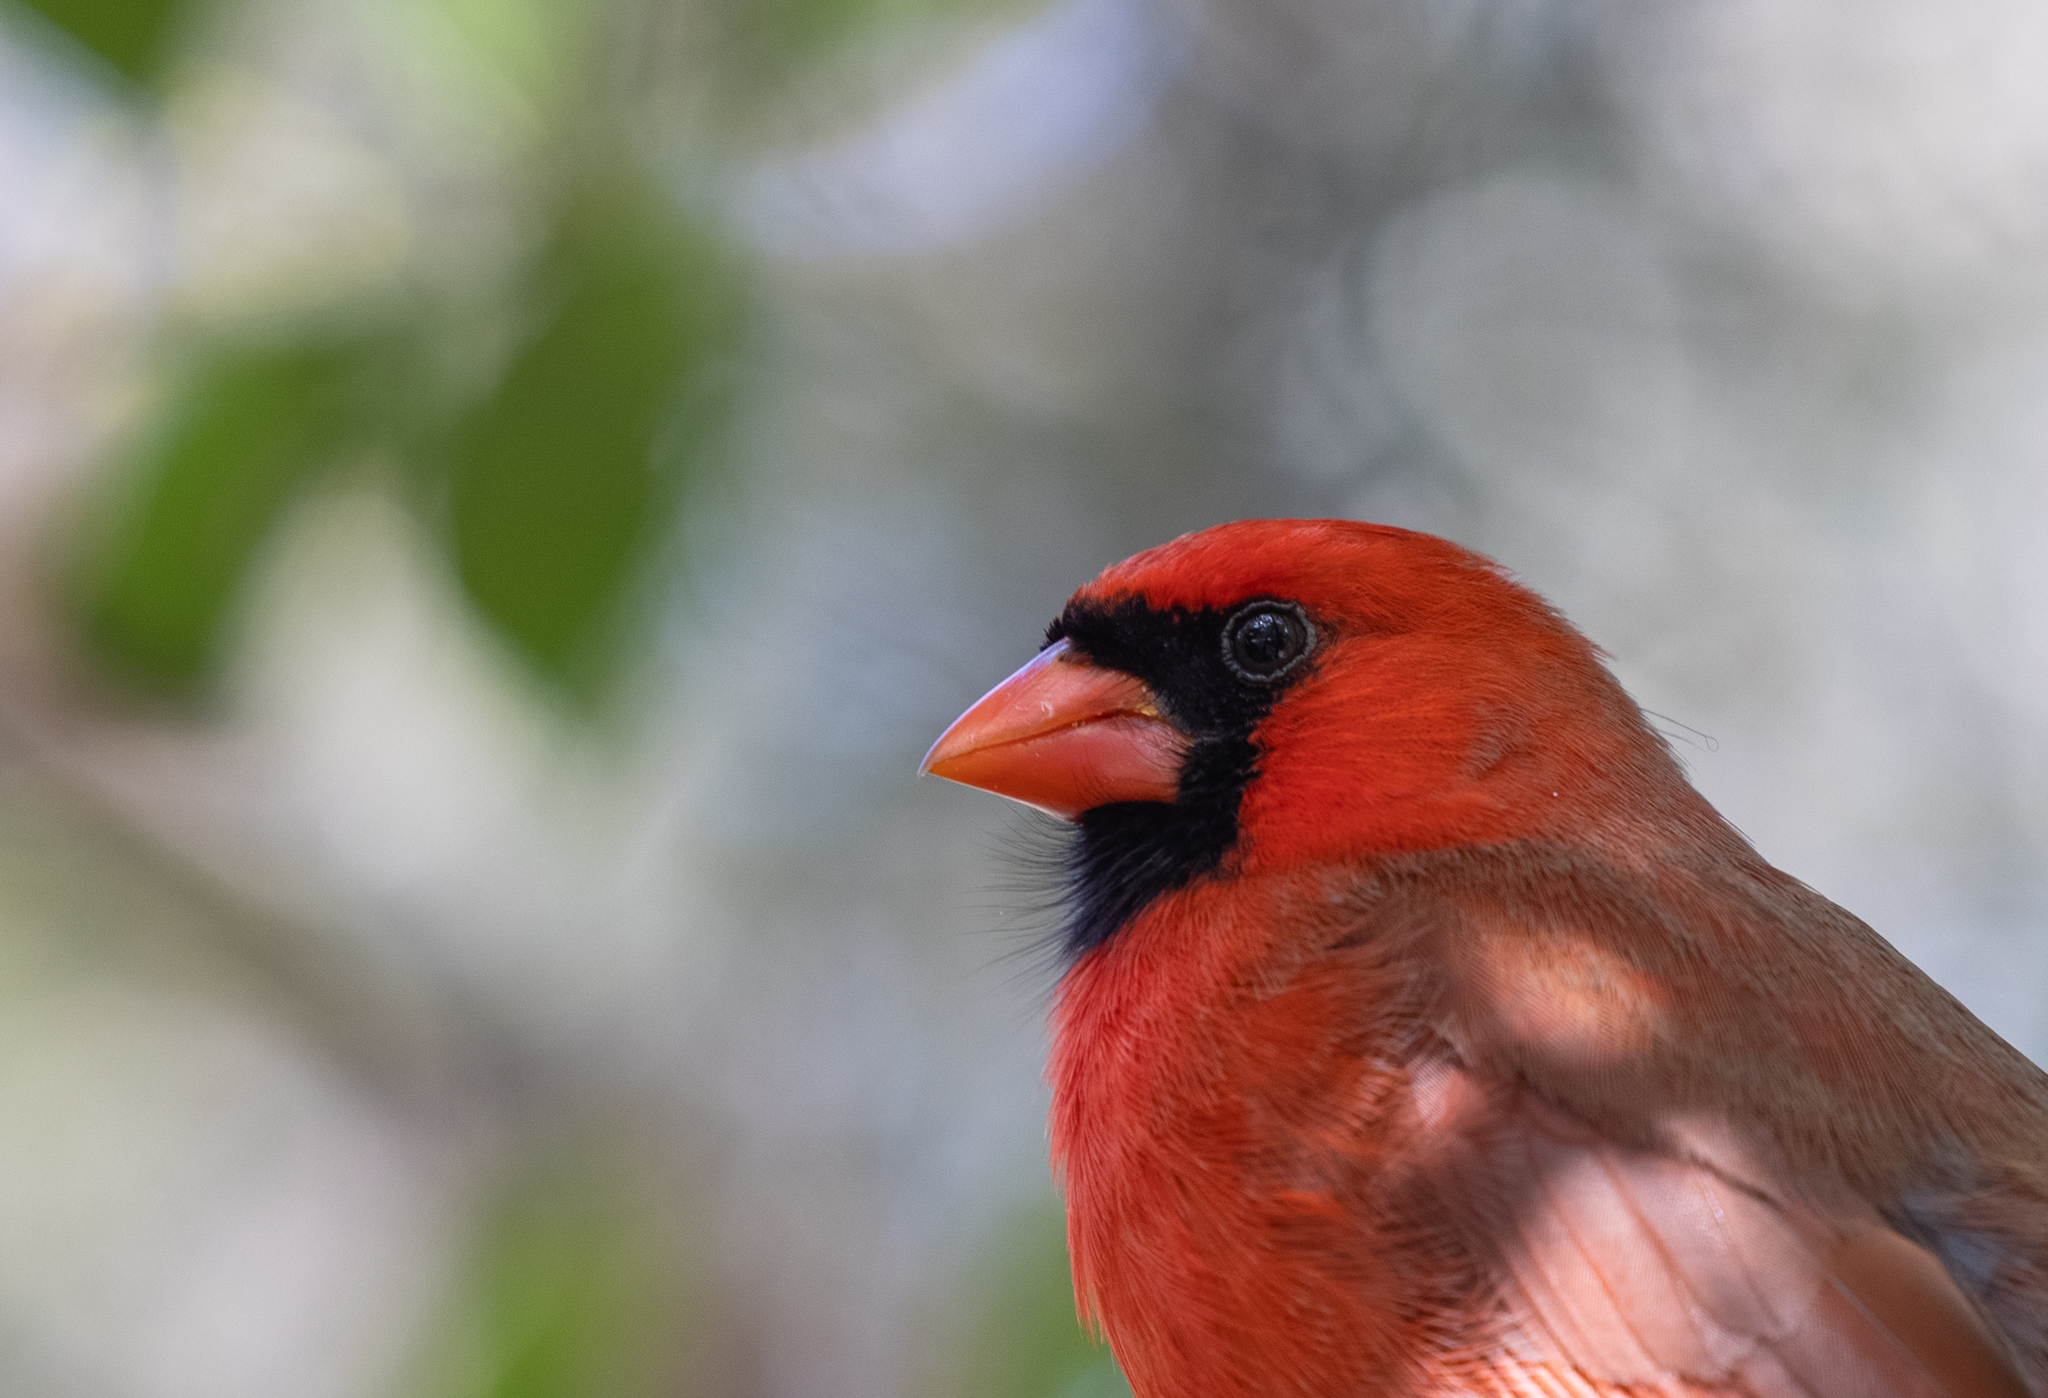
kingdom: Animalia
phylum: Chordata
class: Aves
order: Passeriformes
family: Cardinalidae
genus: Cardinalis
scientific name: Cardinalis cardinalis
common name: Northern cardinal
